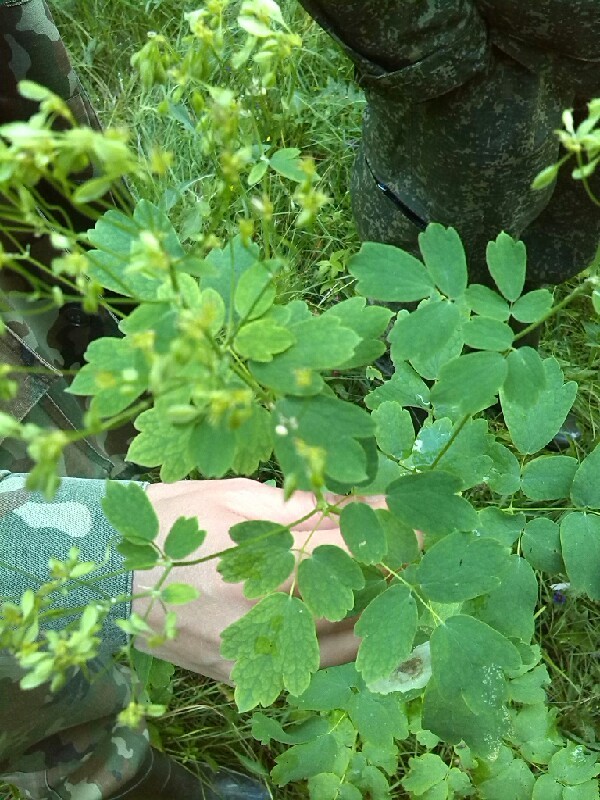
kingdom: Plantae
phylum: Tracheophyta
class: Magnoliopsida
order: Ranunculales
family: Ranunculaceae
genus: Thalictrum
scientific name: Thalictrum aquilegiifolium
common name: French meadow-rue
